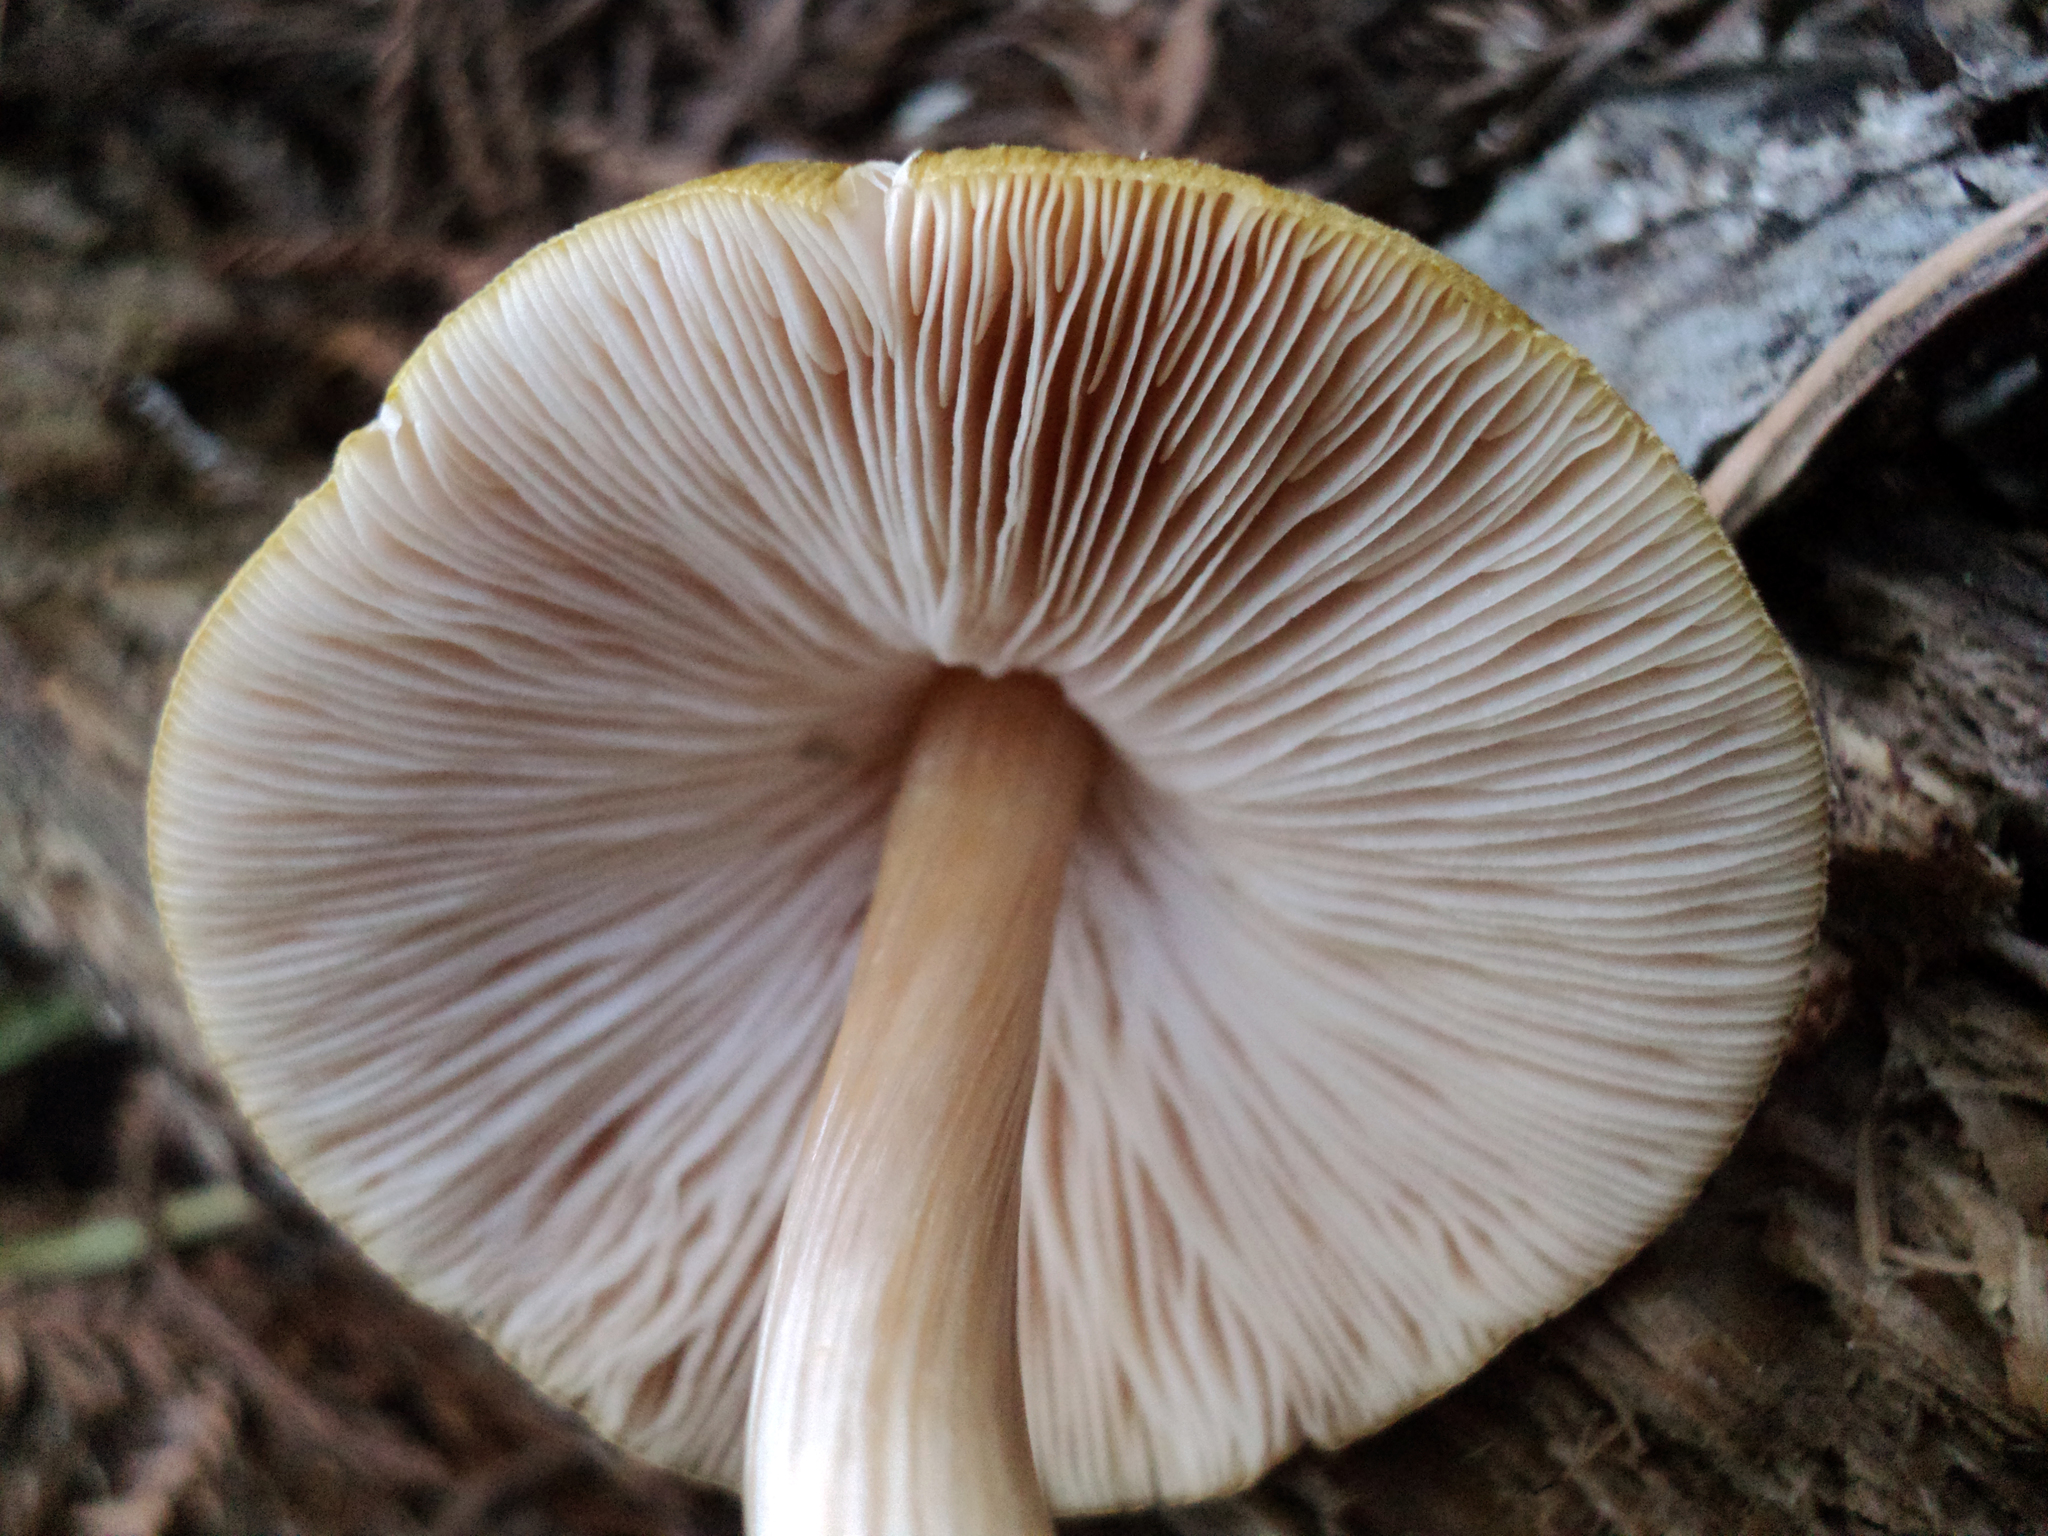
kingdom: Fungi
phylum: Basidiomycota
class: Agaricomycetes
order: Agaricales
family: Pluteaceae
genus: Pluteus
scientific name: Pluteus leoninus
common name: Lion shield
